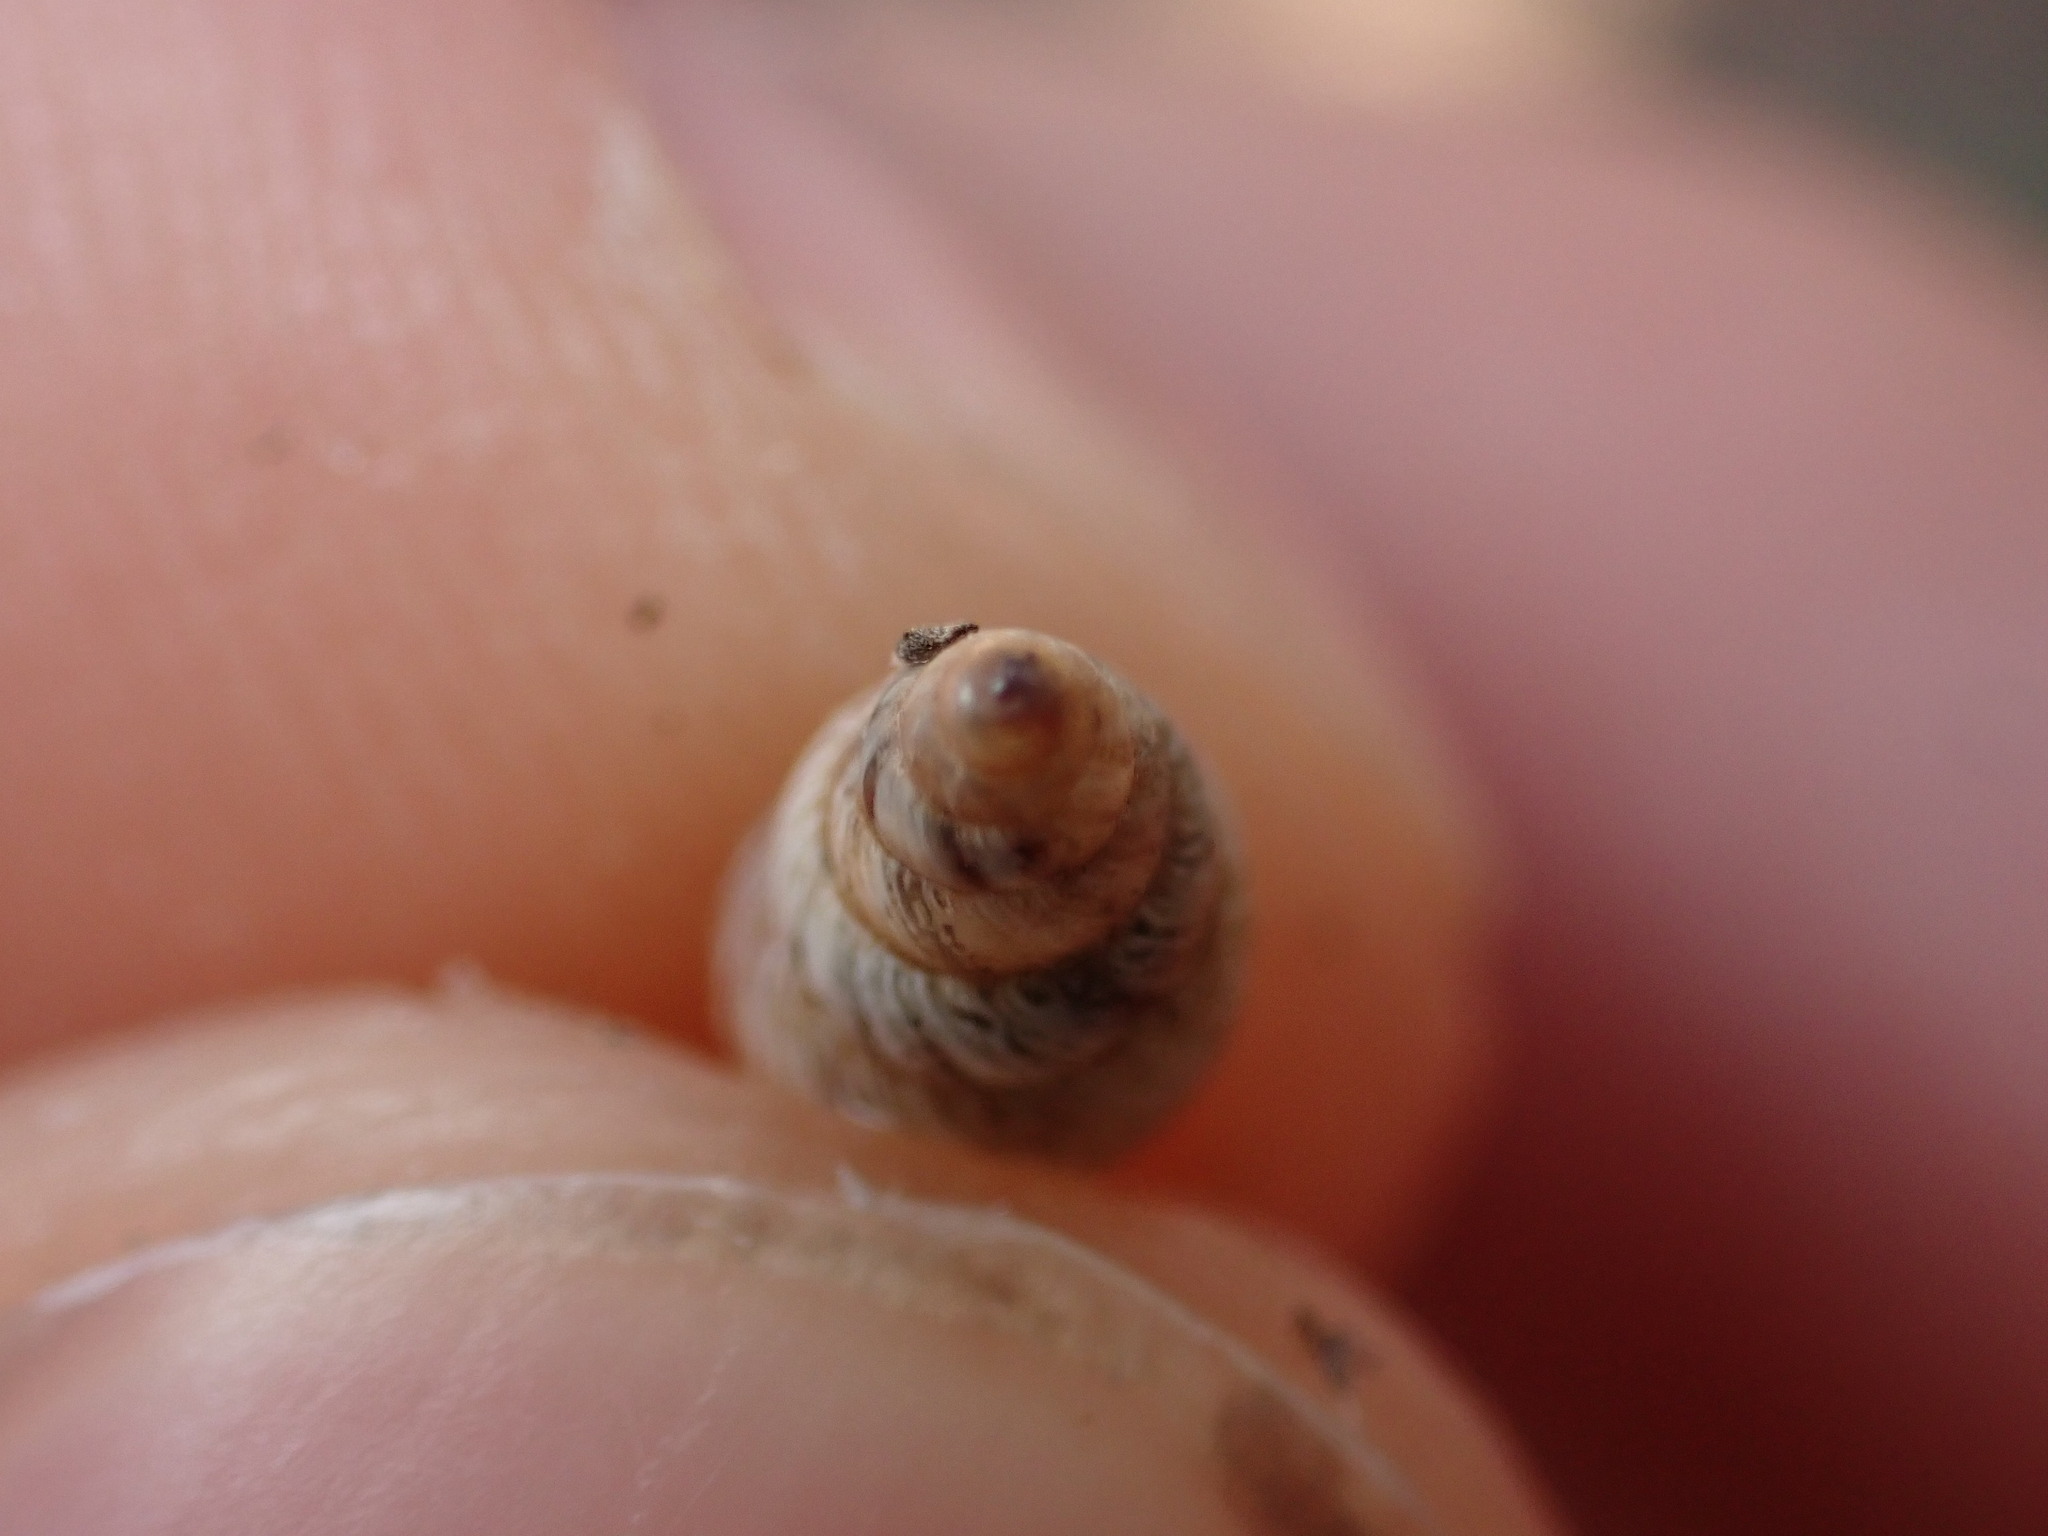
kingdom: Animalia
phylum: Mollusca
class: Gastropoda
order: Stylommatophora
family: Geomitridae
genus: Cochlicella
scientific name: Cochlicella barbara
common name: Potbellied helicellid
